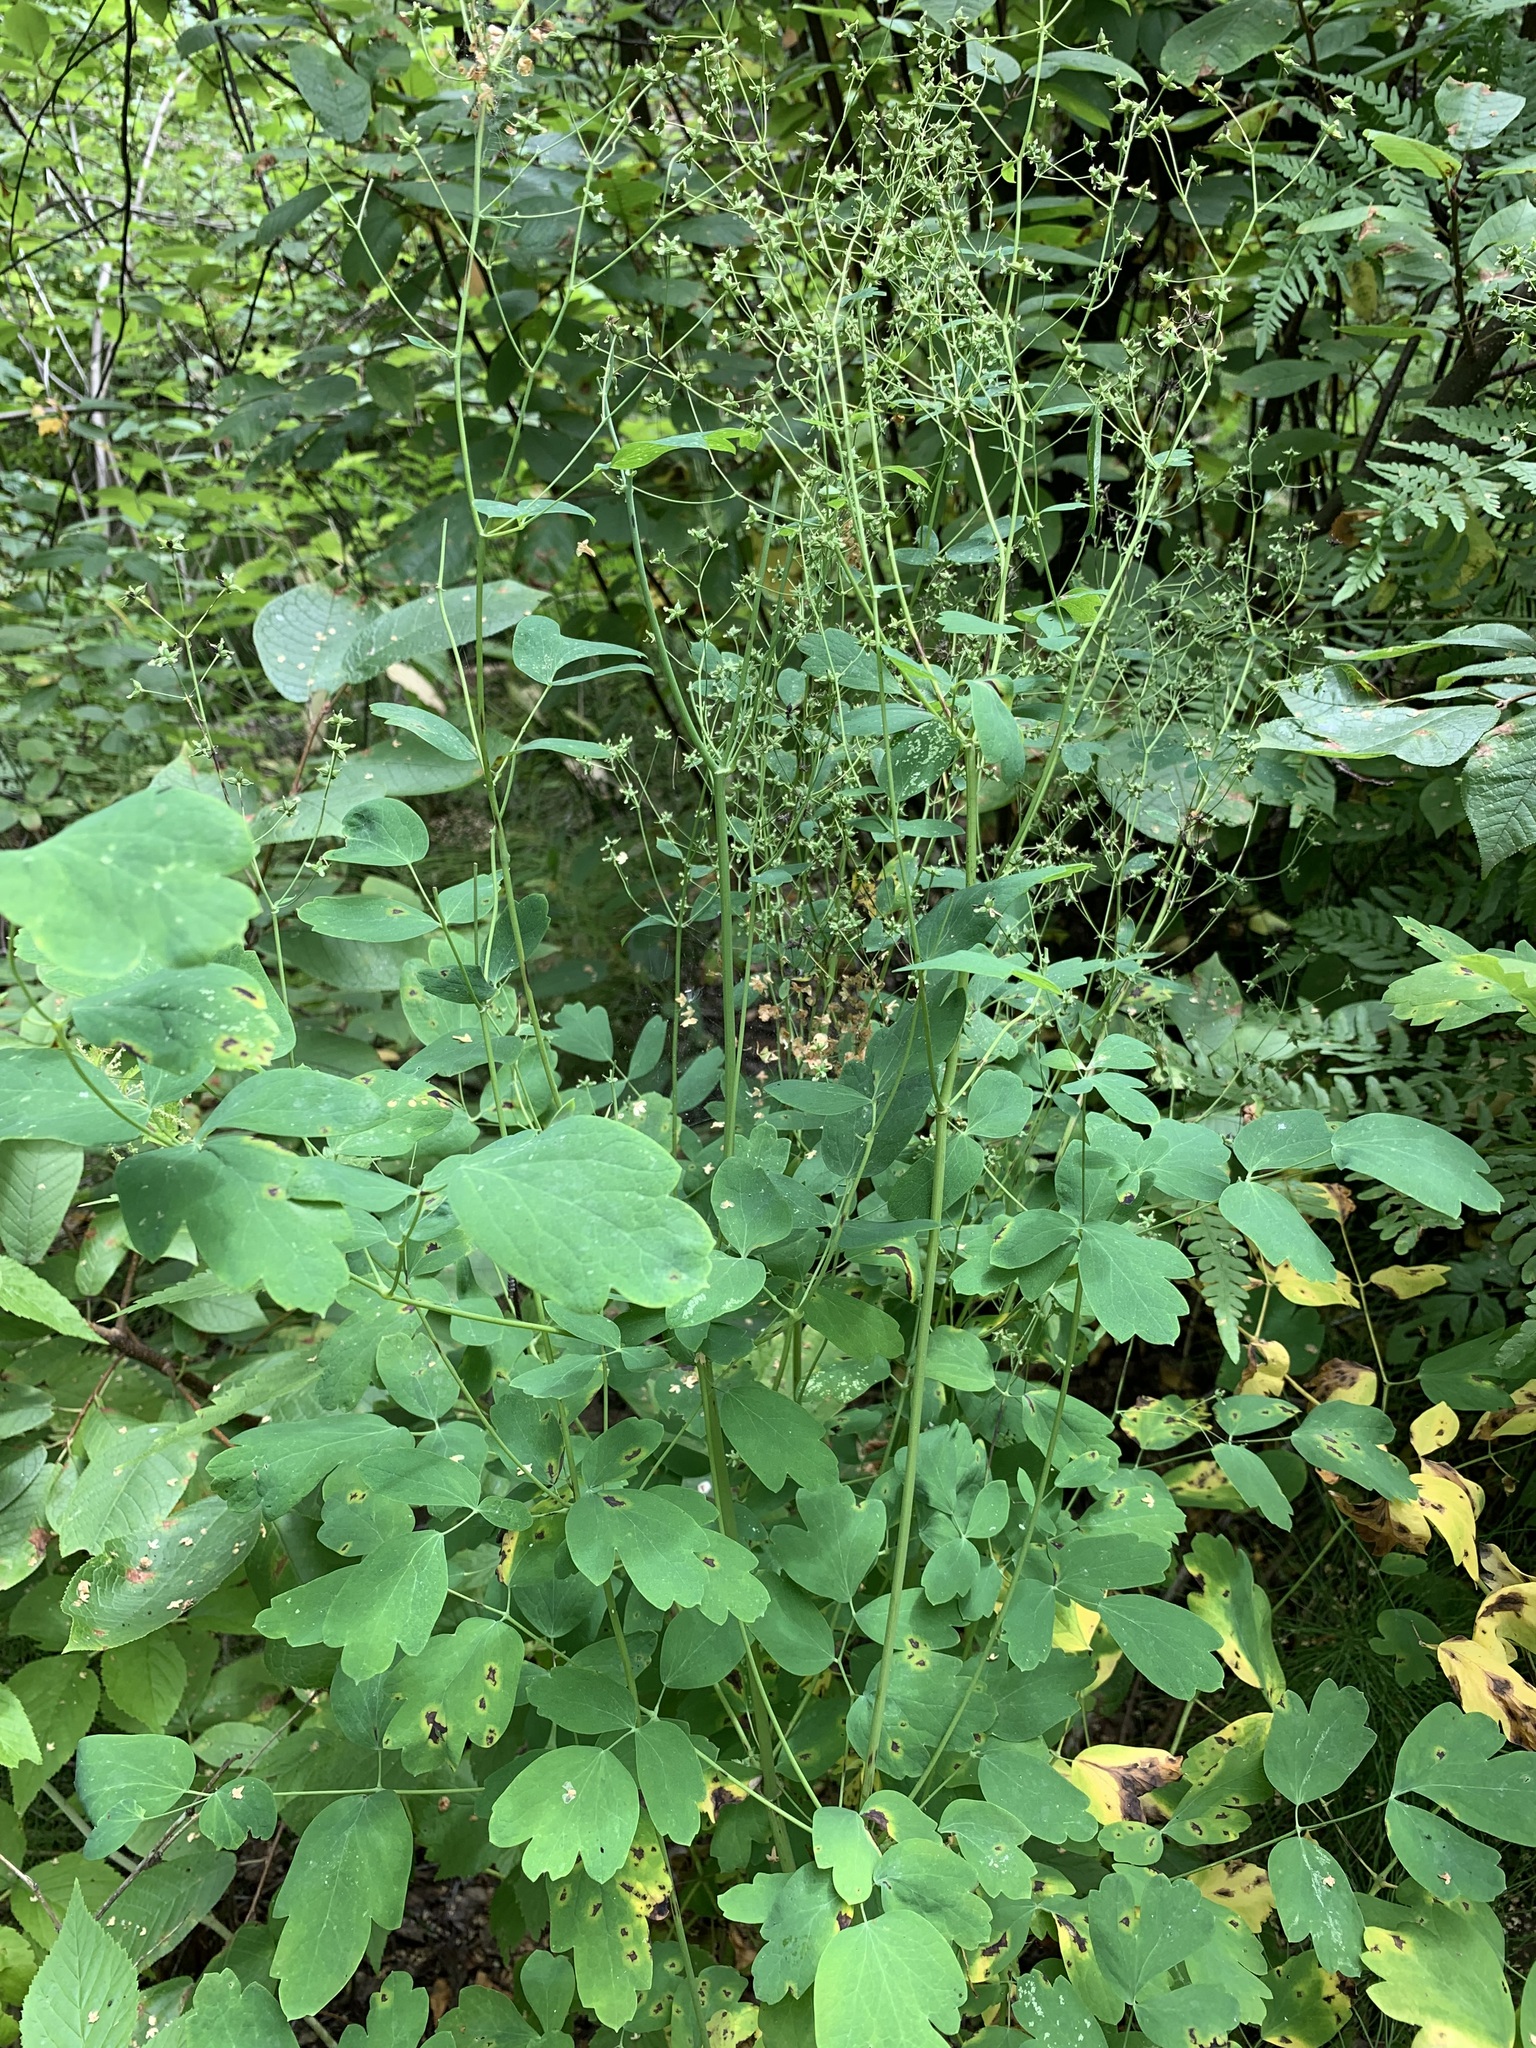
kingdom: Plantae
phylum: Tracheophyta
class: Magnoliopsida
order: Ranunculales
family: Ranunculaceae
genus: Thalictrum
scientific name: Thalictrum minus
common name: Lesser meadow-rue
